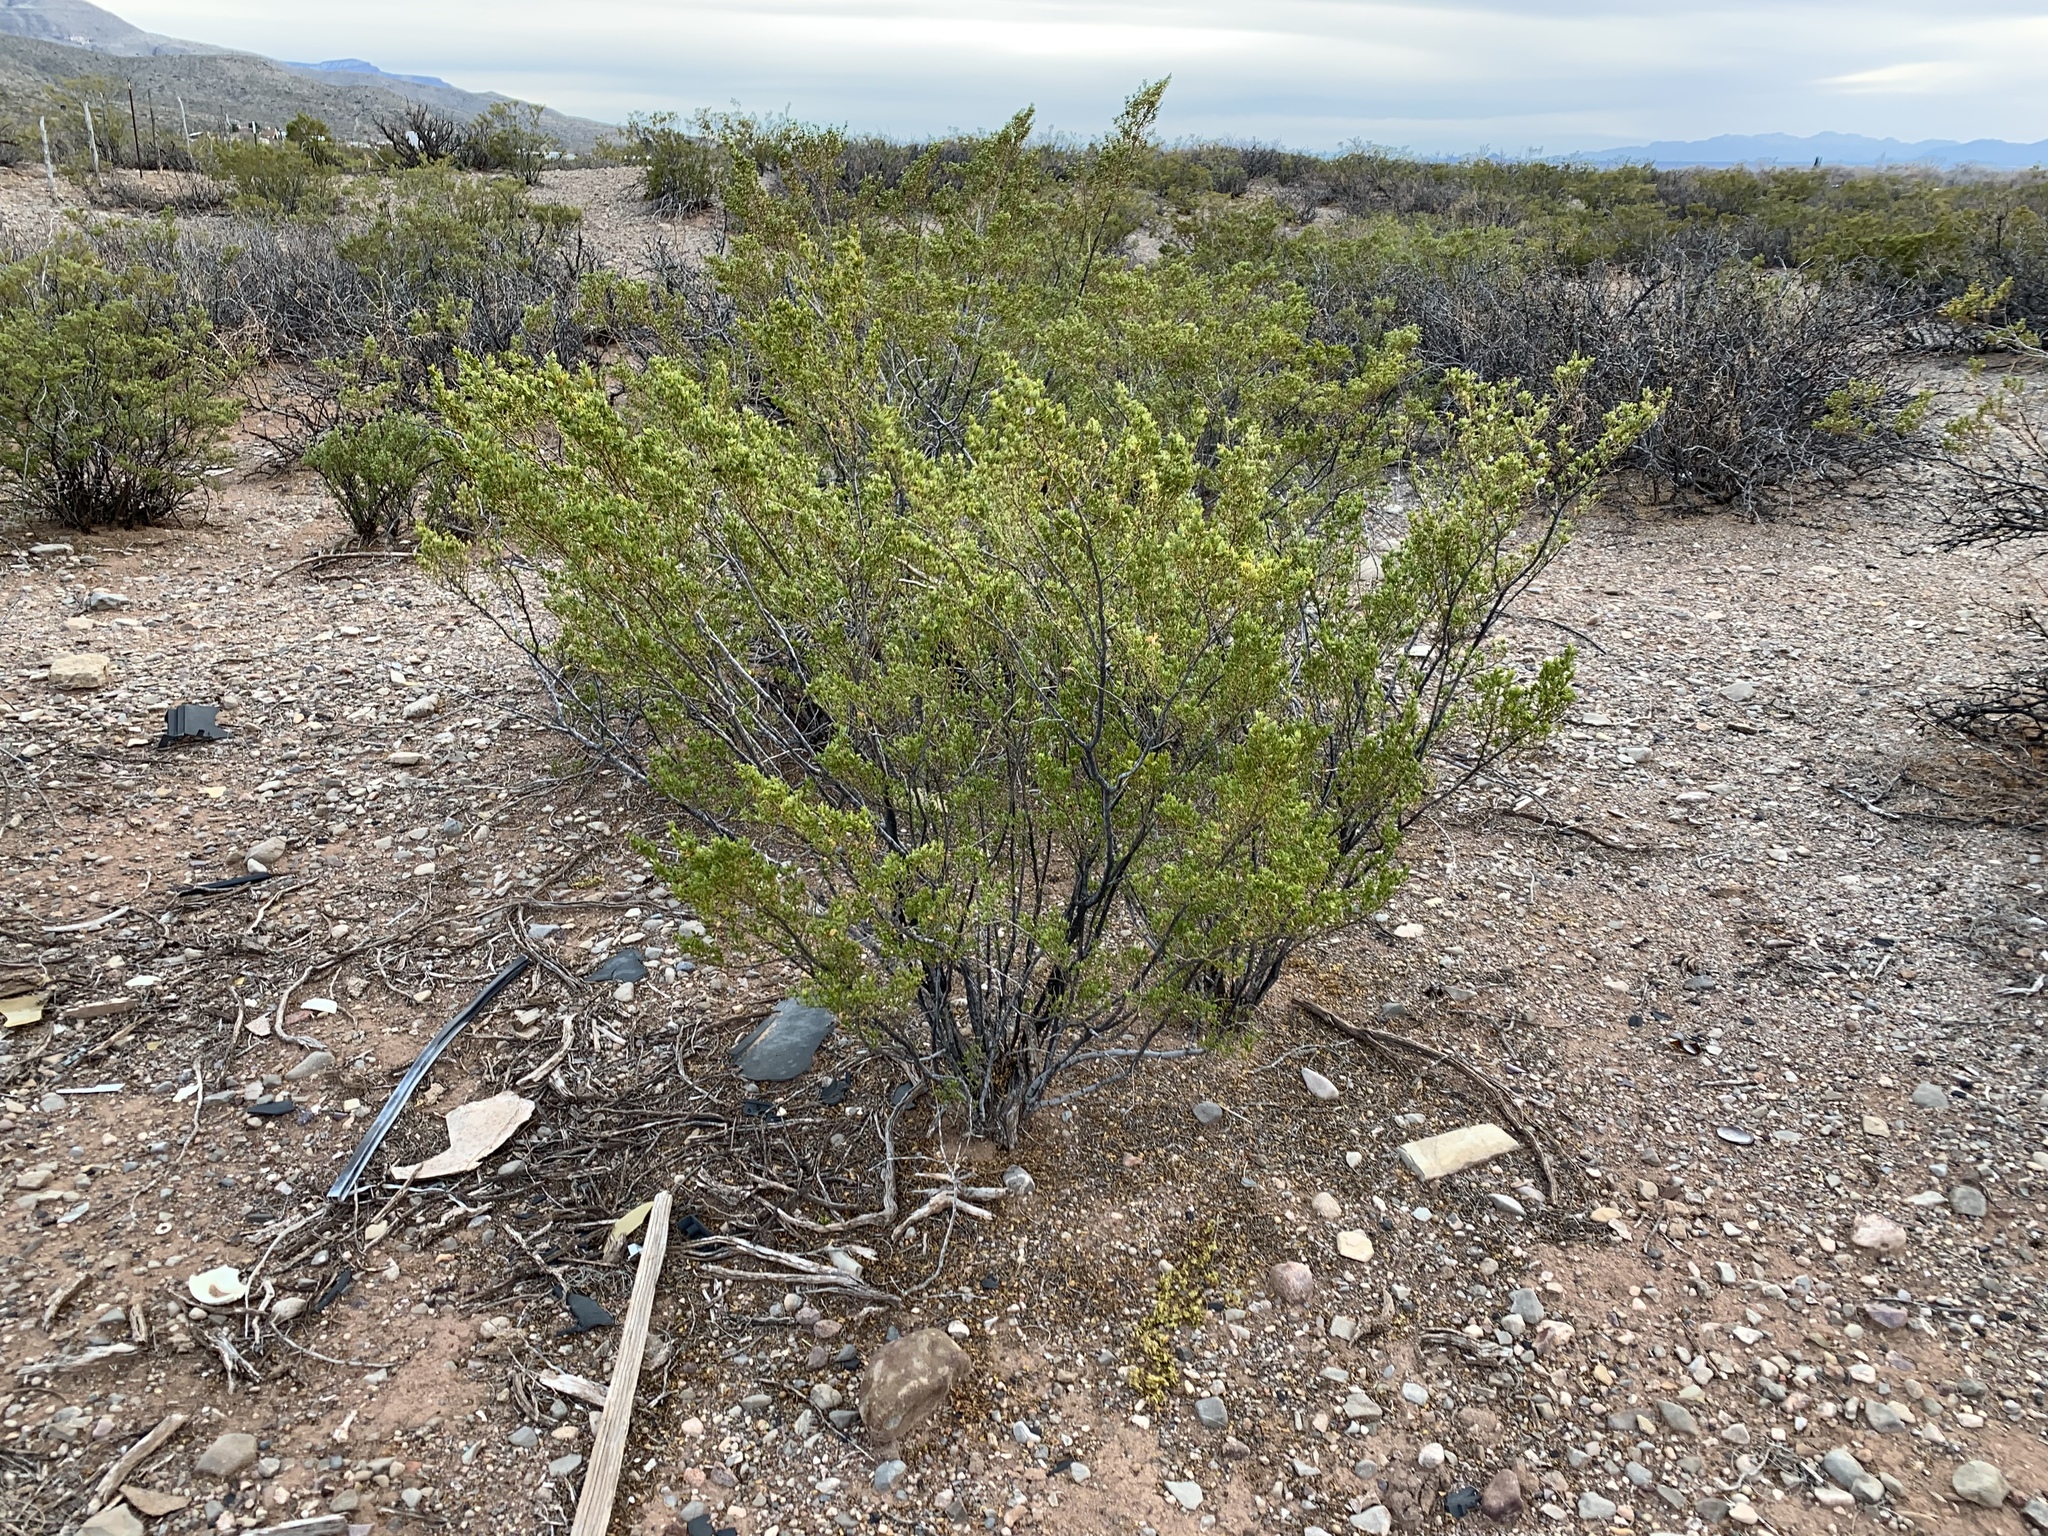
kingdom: Plantae
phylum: Tracheophyta
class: Magnoliopsida
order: Zygophyllales
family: Zygophyllaceae
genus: Larrea
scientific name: Larrea tridentata
